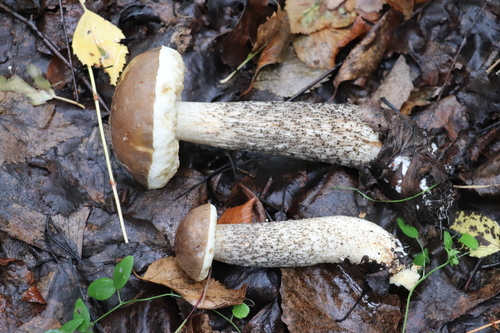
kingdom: Fungi
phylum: Basidiomycota
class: Agaricomycetes
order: Boletales
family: Boletaceae
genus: Leccinum
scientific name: Leccinum scabrum
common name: Blushing bolete
